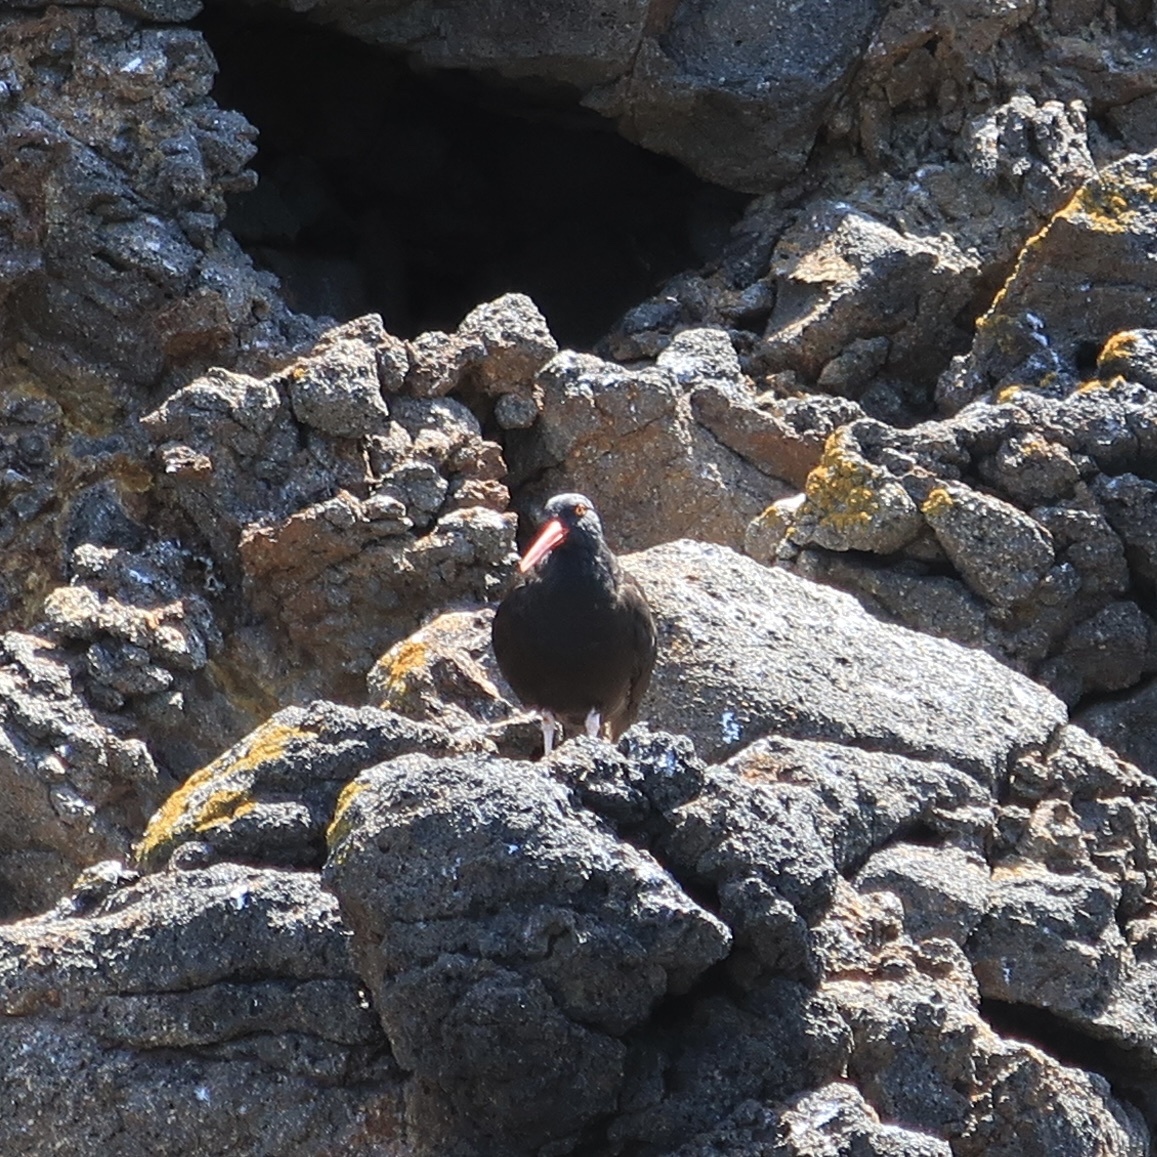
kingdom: Animalia
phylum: Chordata
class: Aves
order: Charadriiformes
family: Haematopodidae
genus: Haematopus
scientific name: Haematopus bachmani
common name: Black oystercatcher
